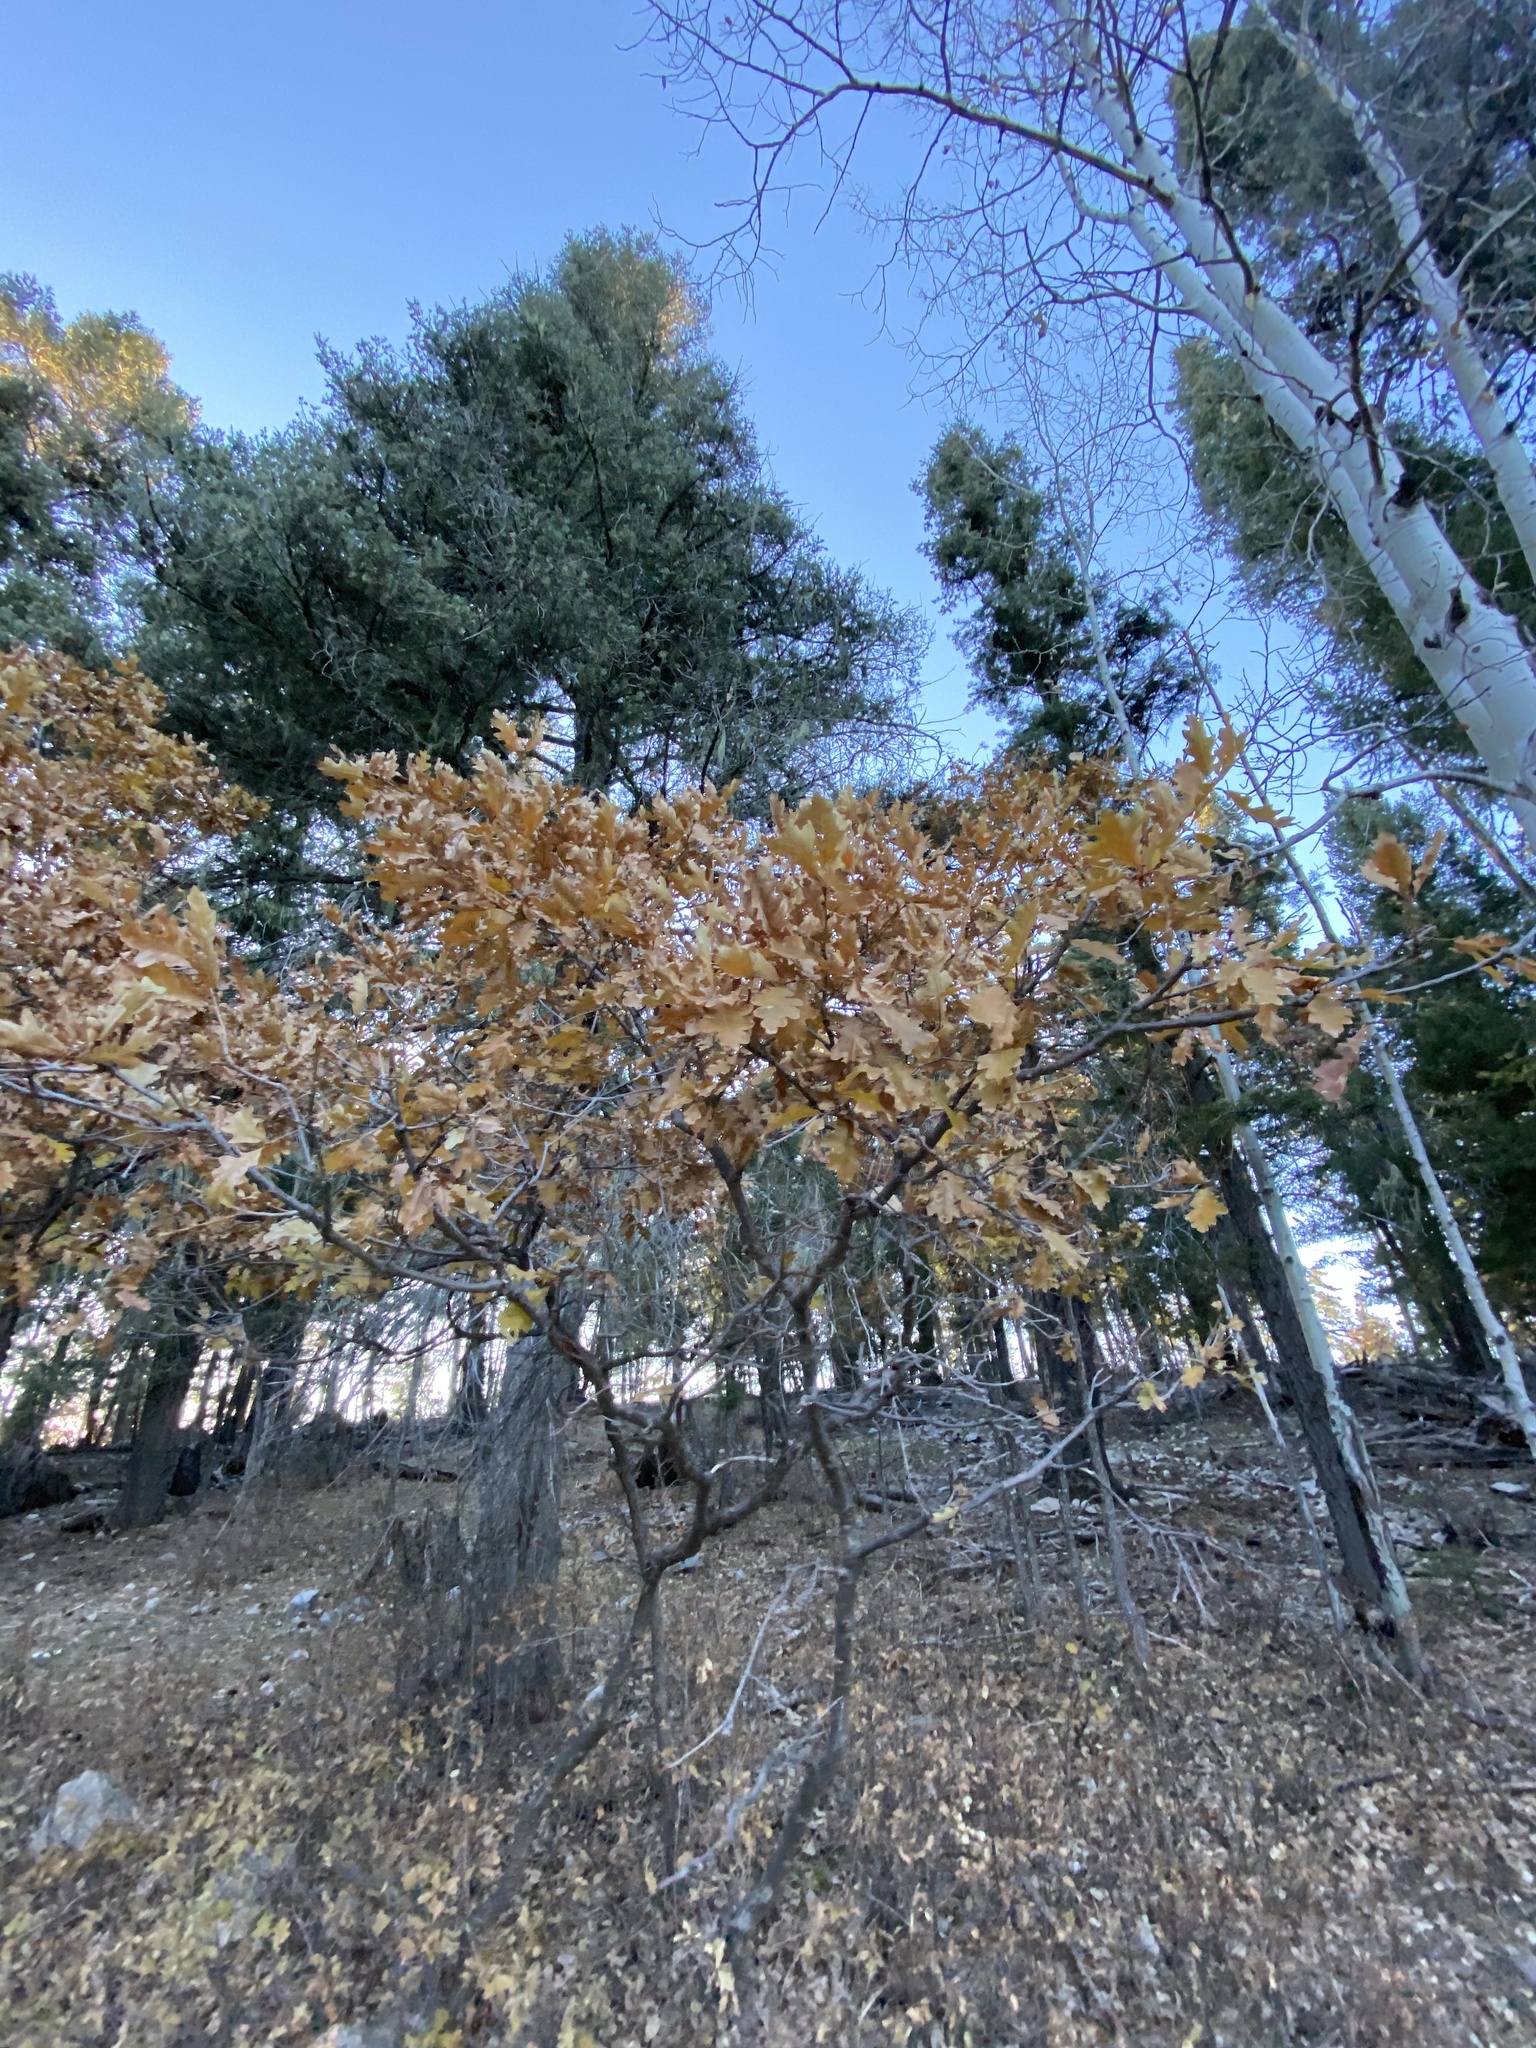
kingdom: Plantae
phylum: Tracheophyta
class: Magnoliopsida
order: Fagales
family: Fagaceae
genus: Quercus
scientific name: Quercus gambelii
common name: Gambel oak
